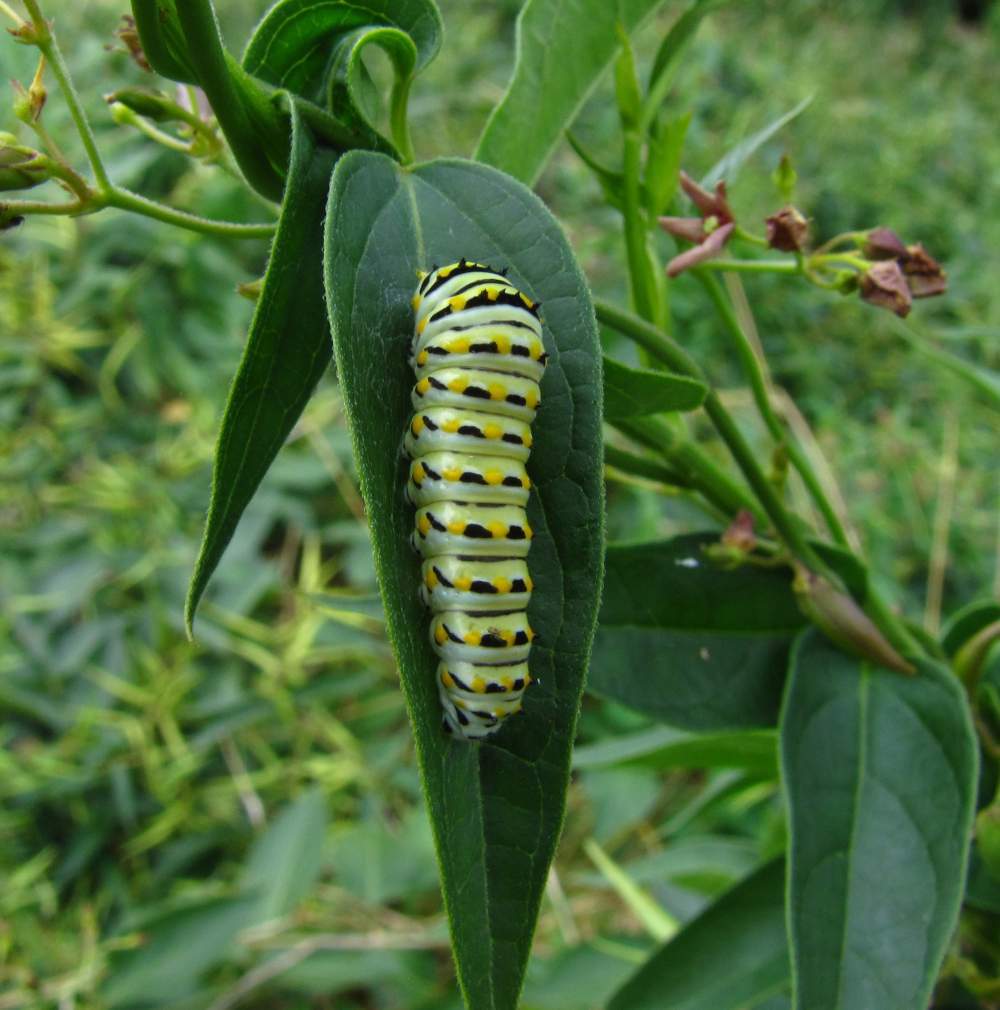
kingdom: Animalia
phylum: Arthropoda
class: Insecta
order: Lepidoptera
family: Papilionidae
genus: Papilio
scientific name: Papilio polyxenes
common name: Black swallowtail
